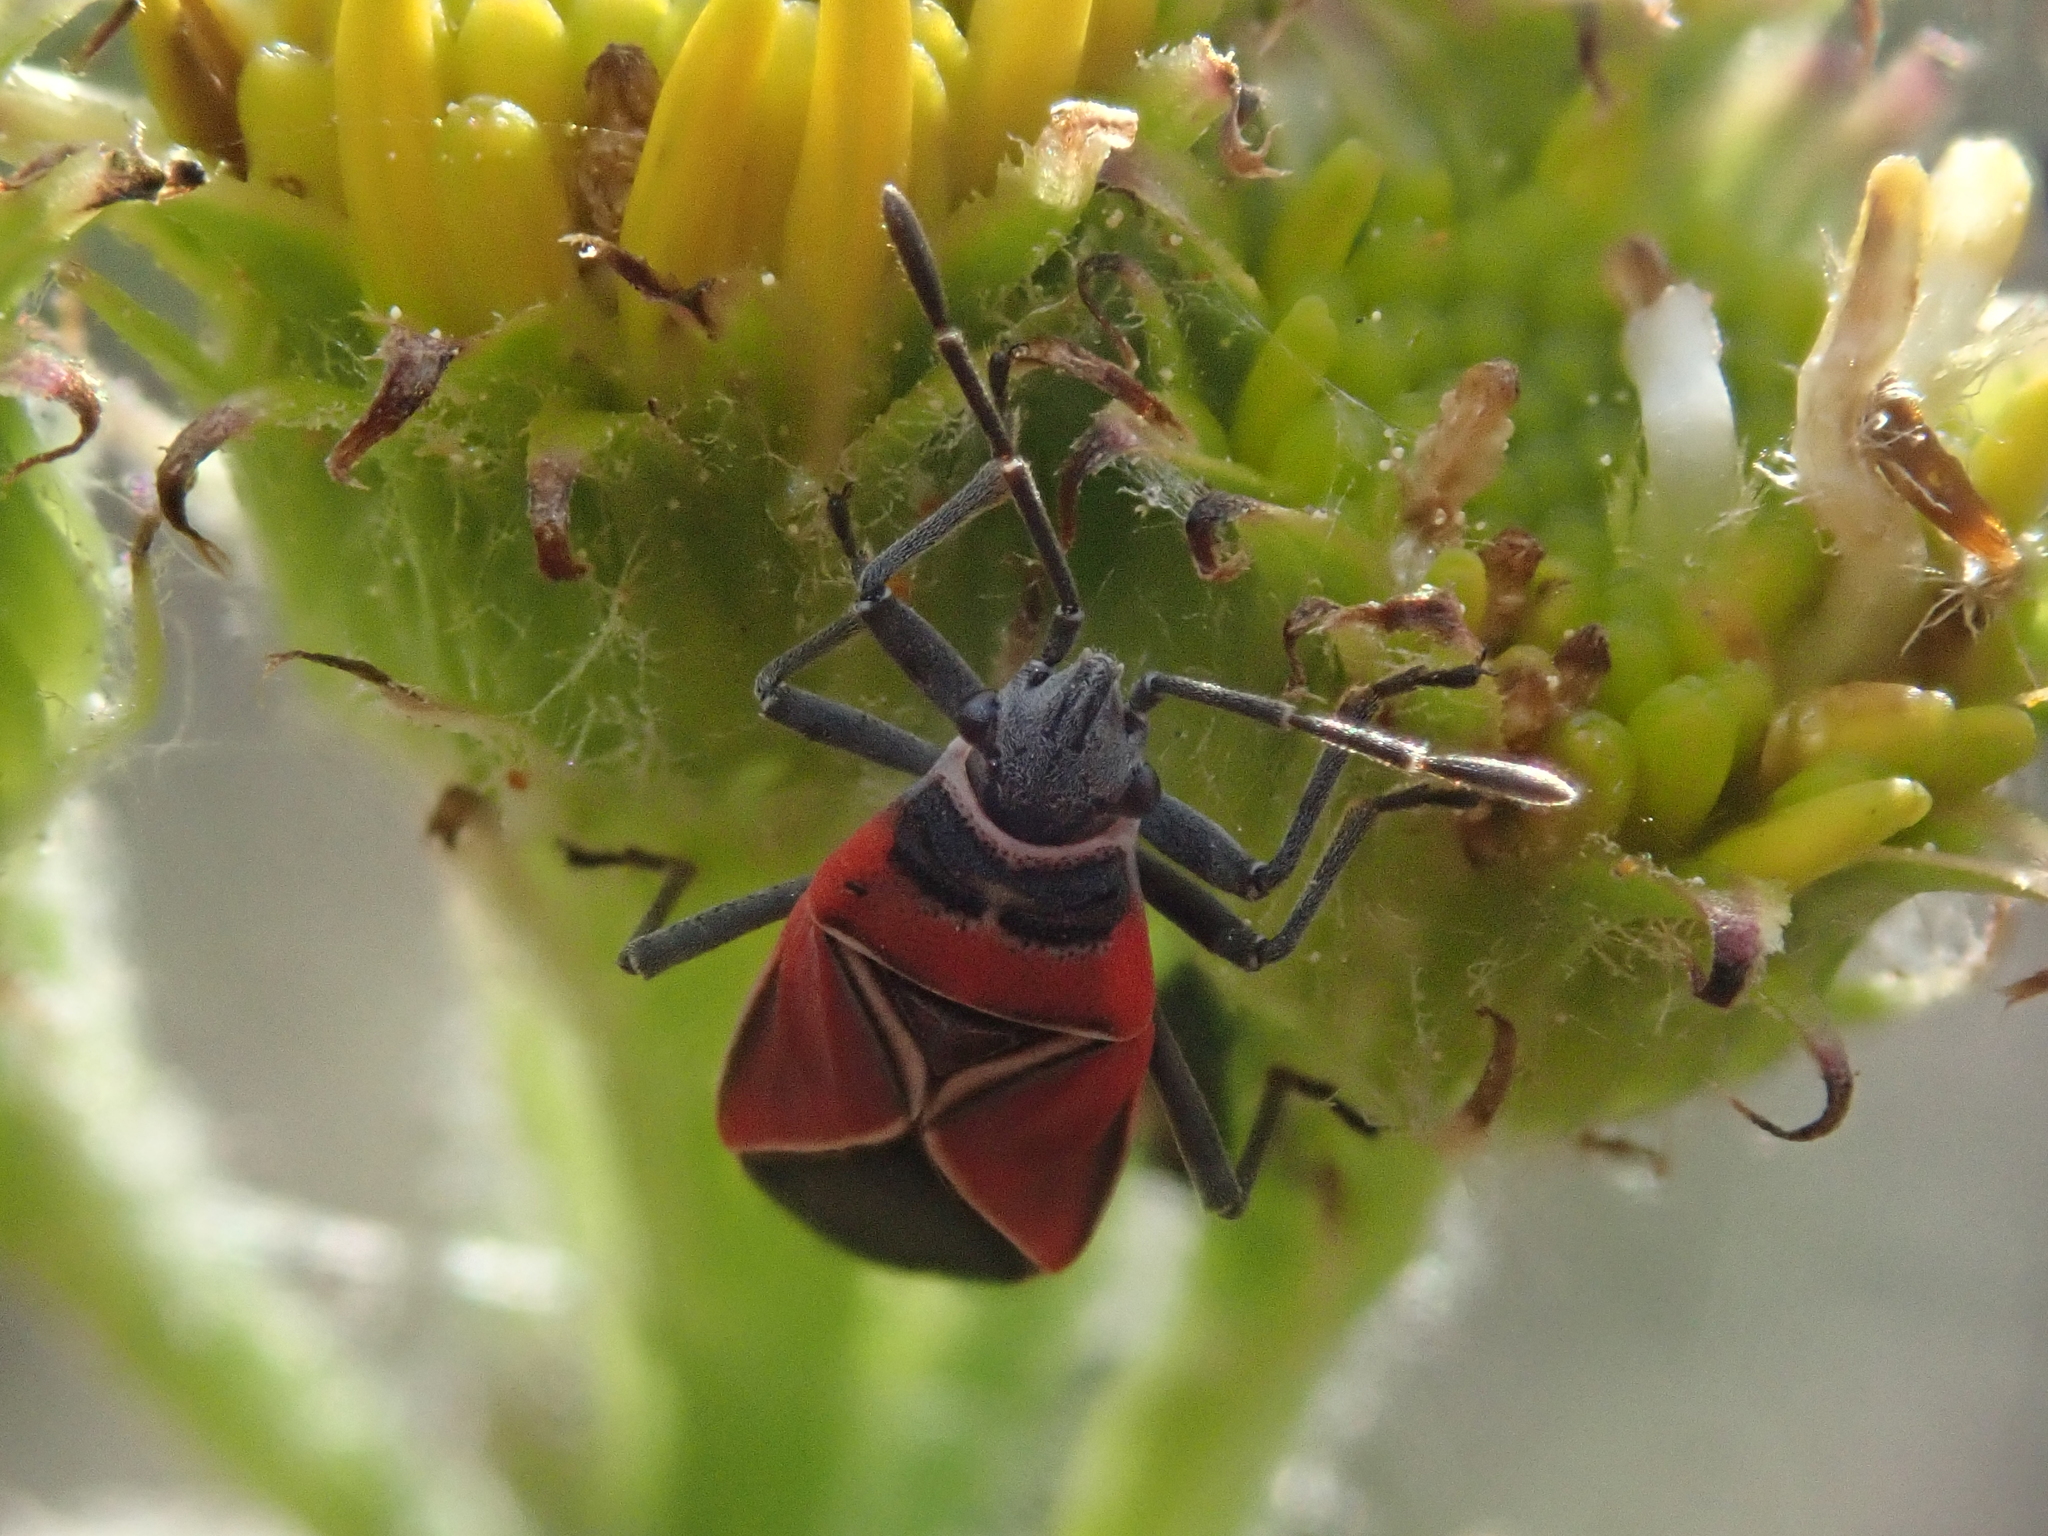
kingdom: Animalia
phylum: Arthropoda
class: Insecta
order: Hemiptera
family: Lygaeidae
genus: Neacoryphus
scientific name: Neacoryphus bicrucis
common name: Lygaeid bug
